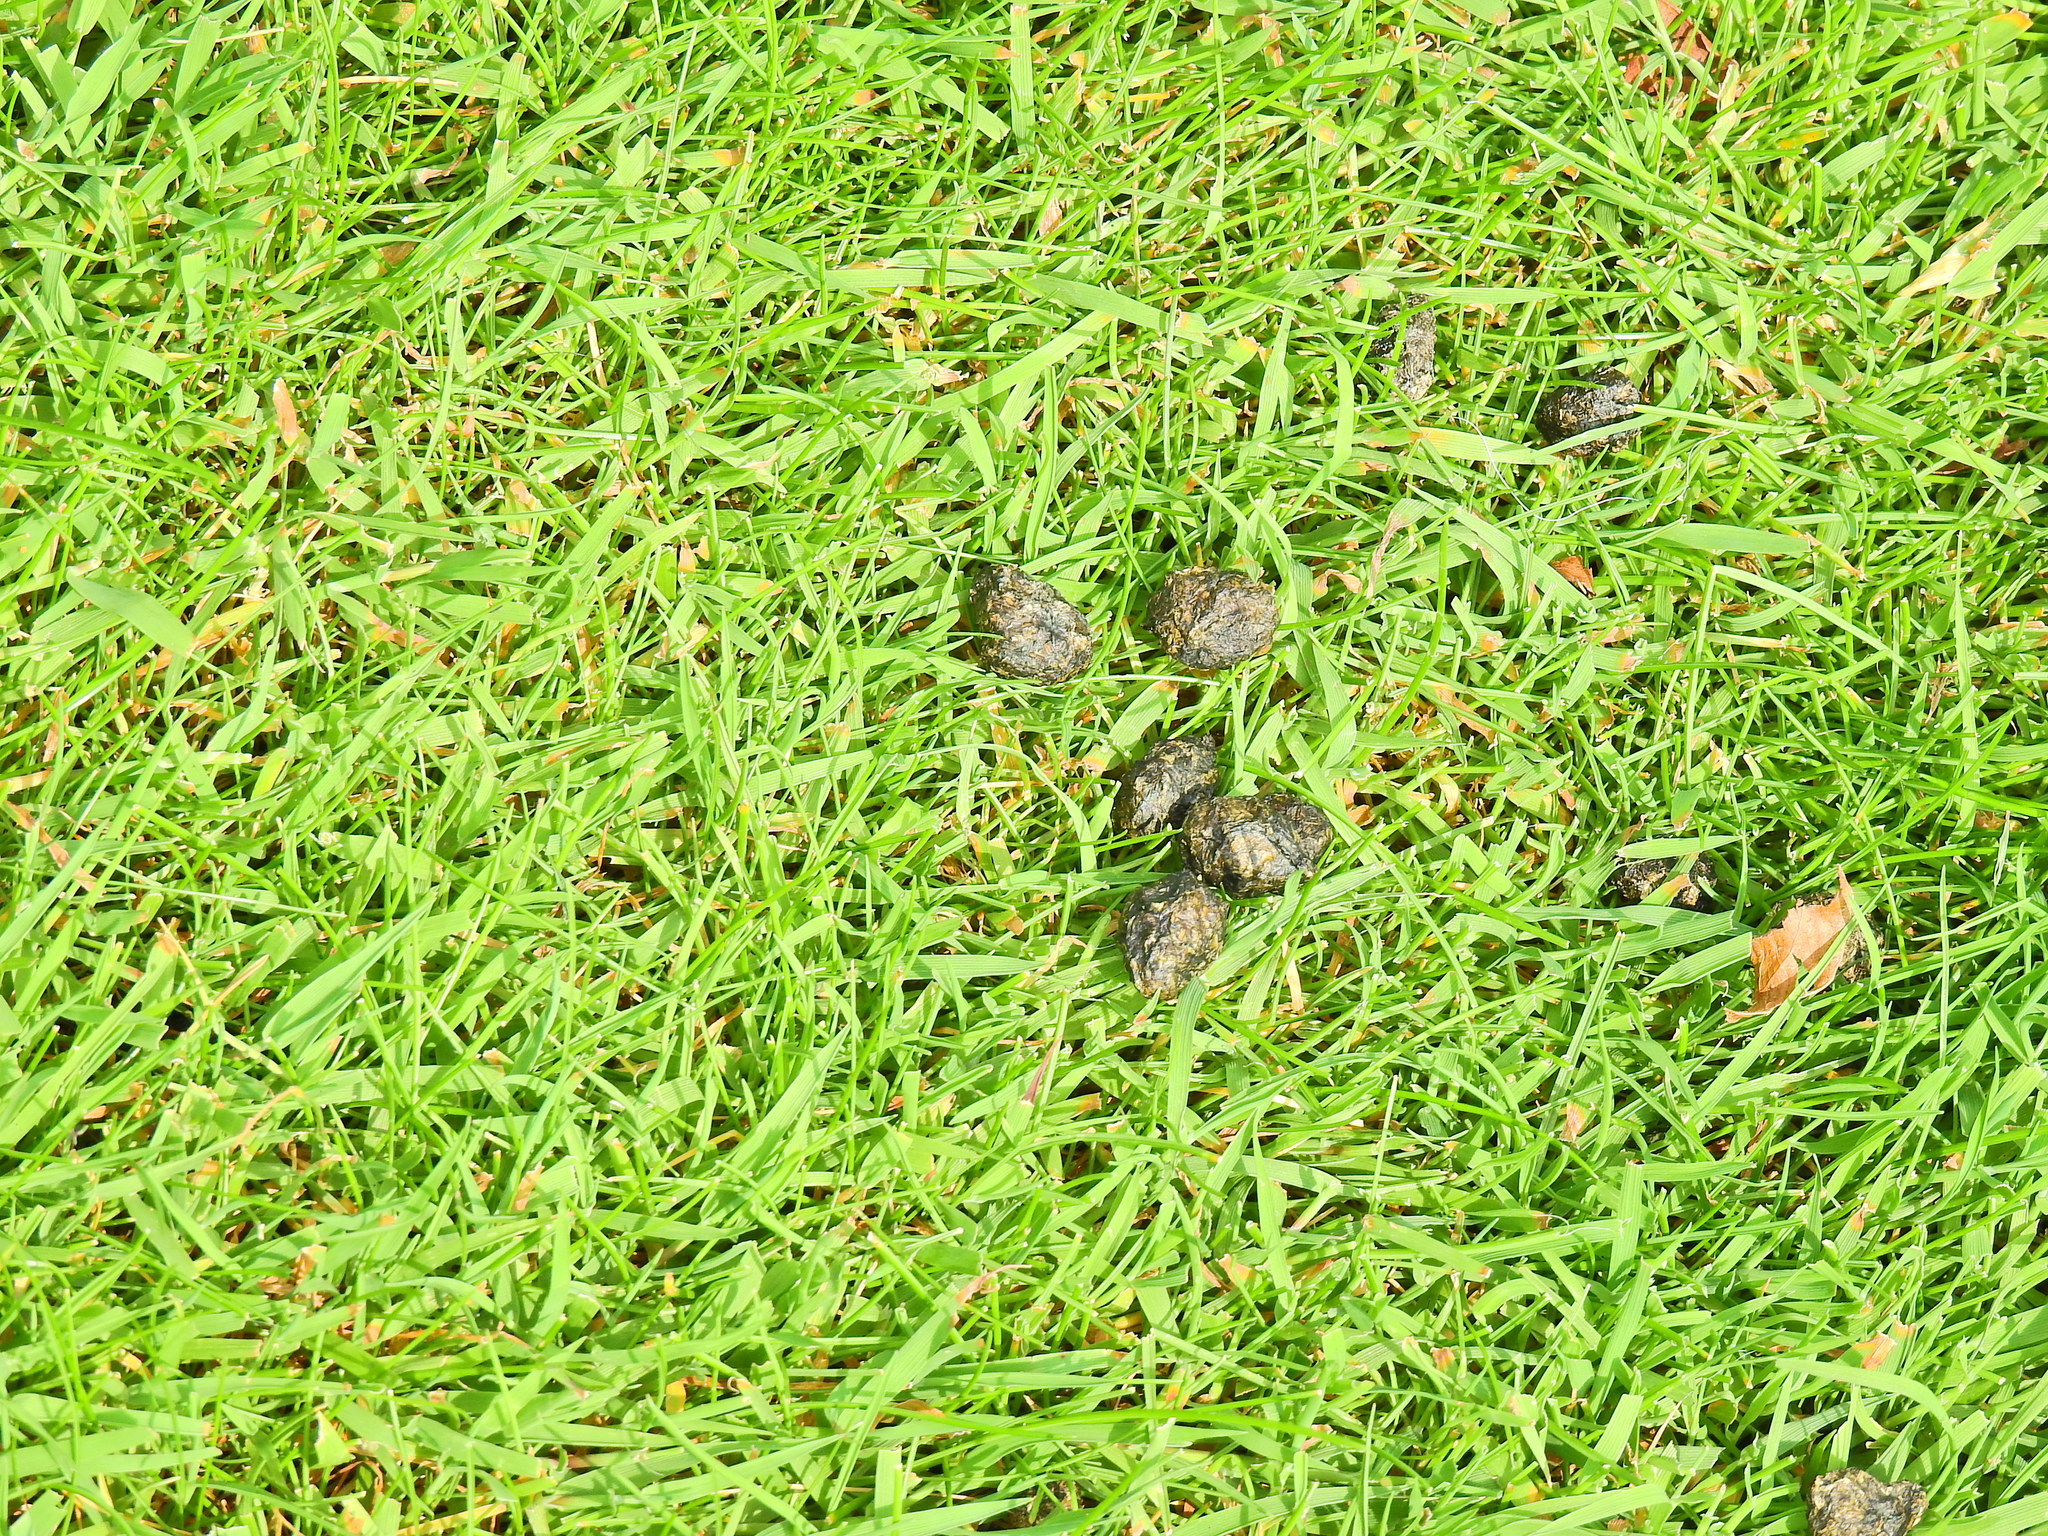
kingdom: Animalia
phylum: Chordata
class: Mammalia
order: Lagomorpha
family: Leporidae
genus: Oryctolagus
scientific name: Oryctolagus cuniculus
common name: European rabbit
